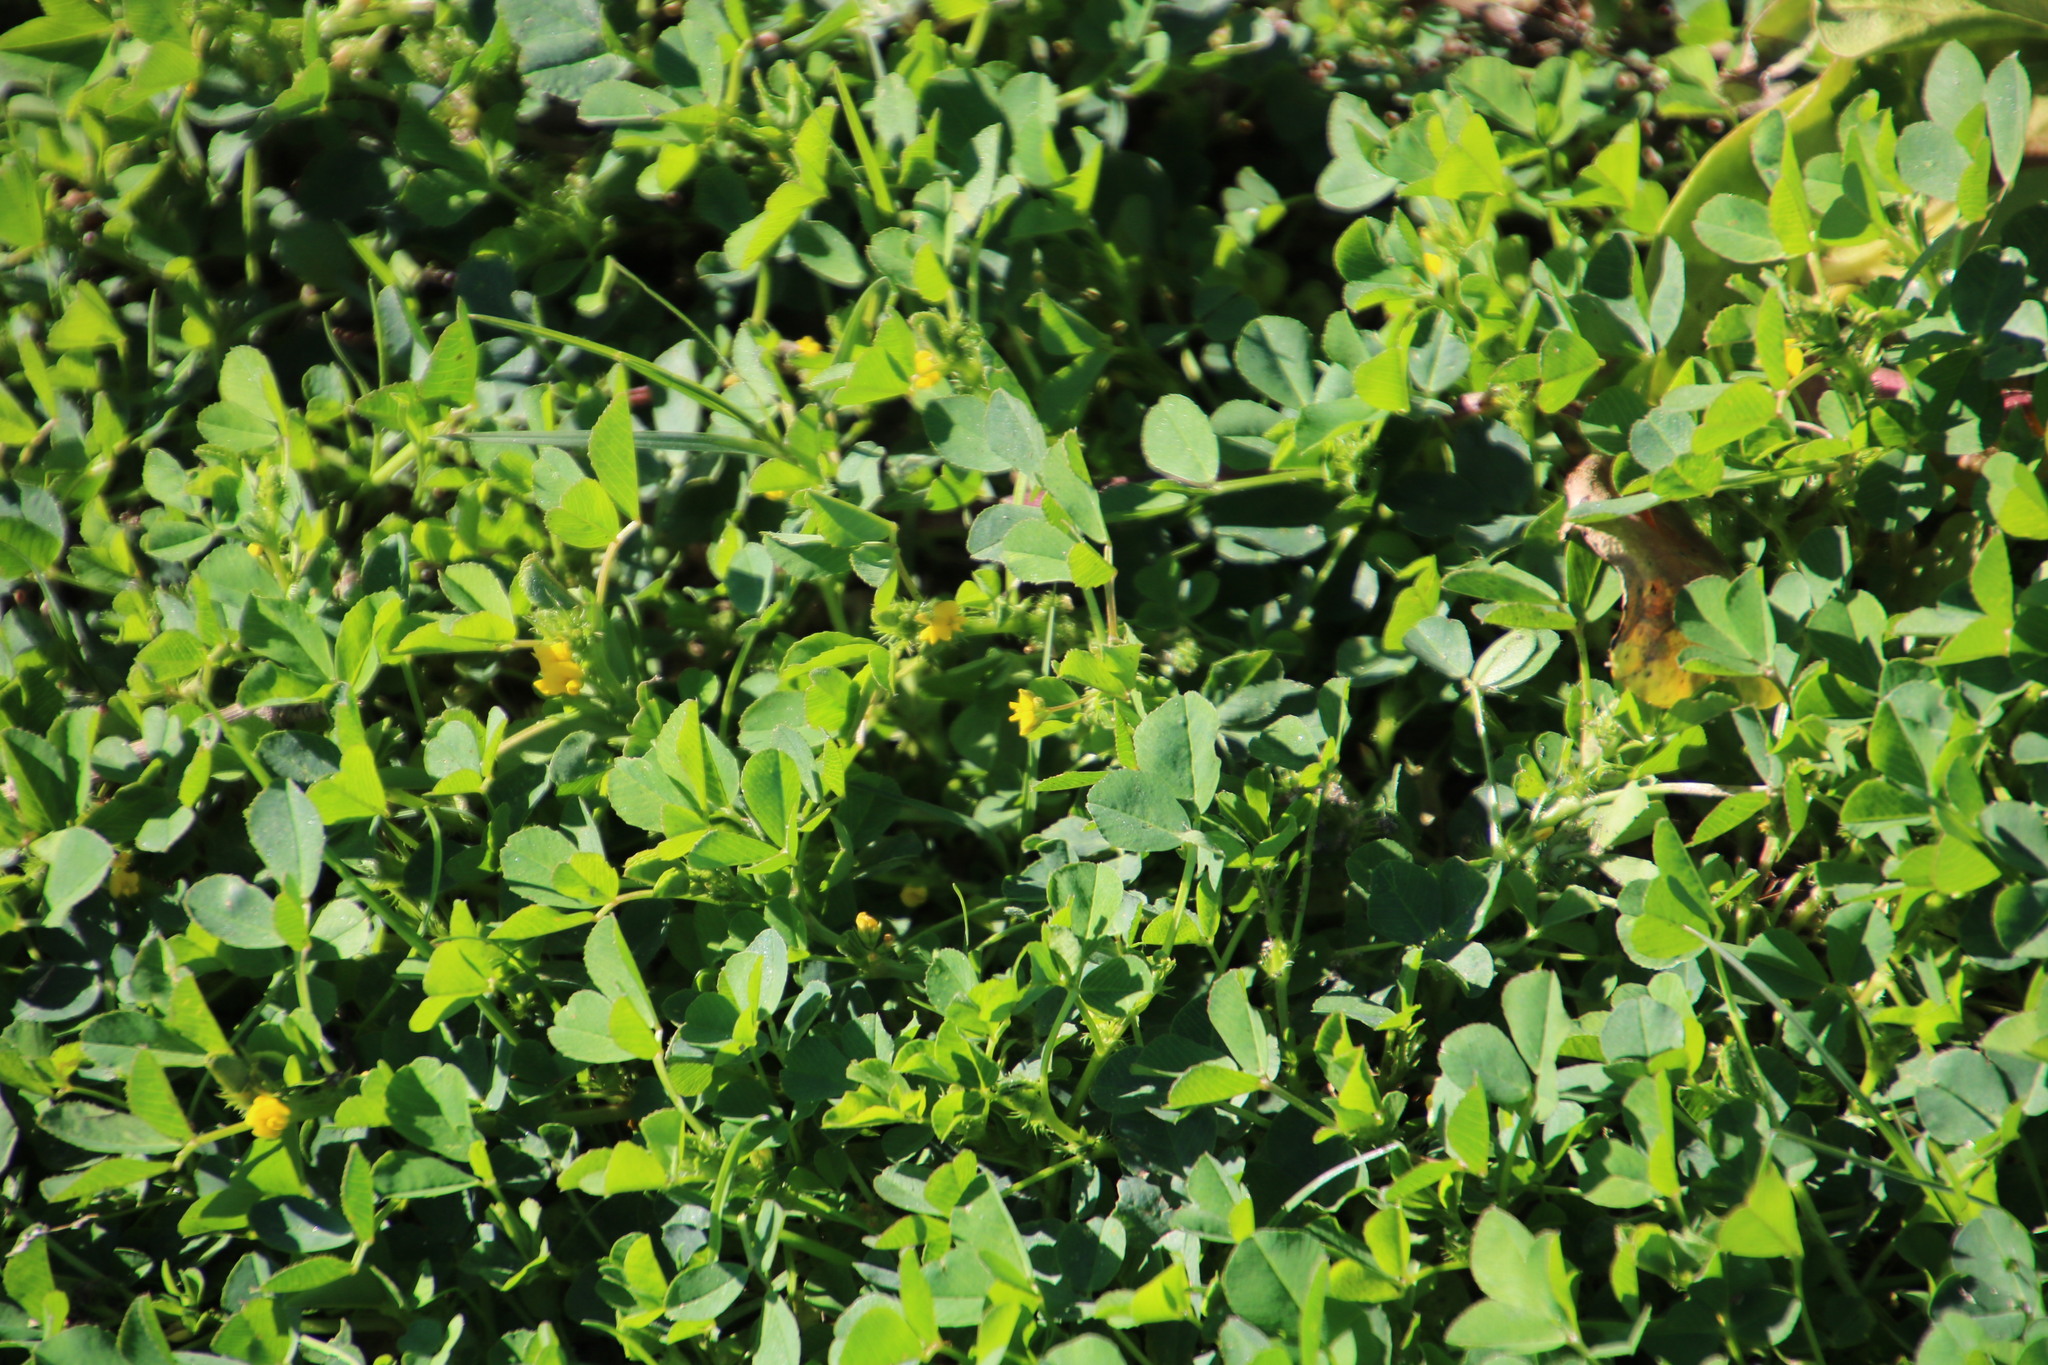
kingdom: Plantae
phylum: Tracheophyta
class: Magnoliopsida
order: Fabales
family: Fabaceae
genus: Medicago
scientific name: Medicago polymorpha
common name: Burclover
